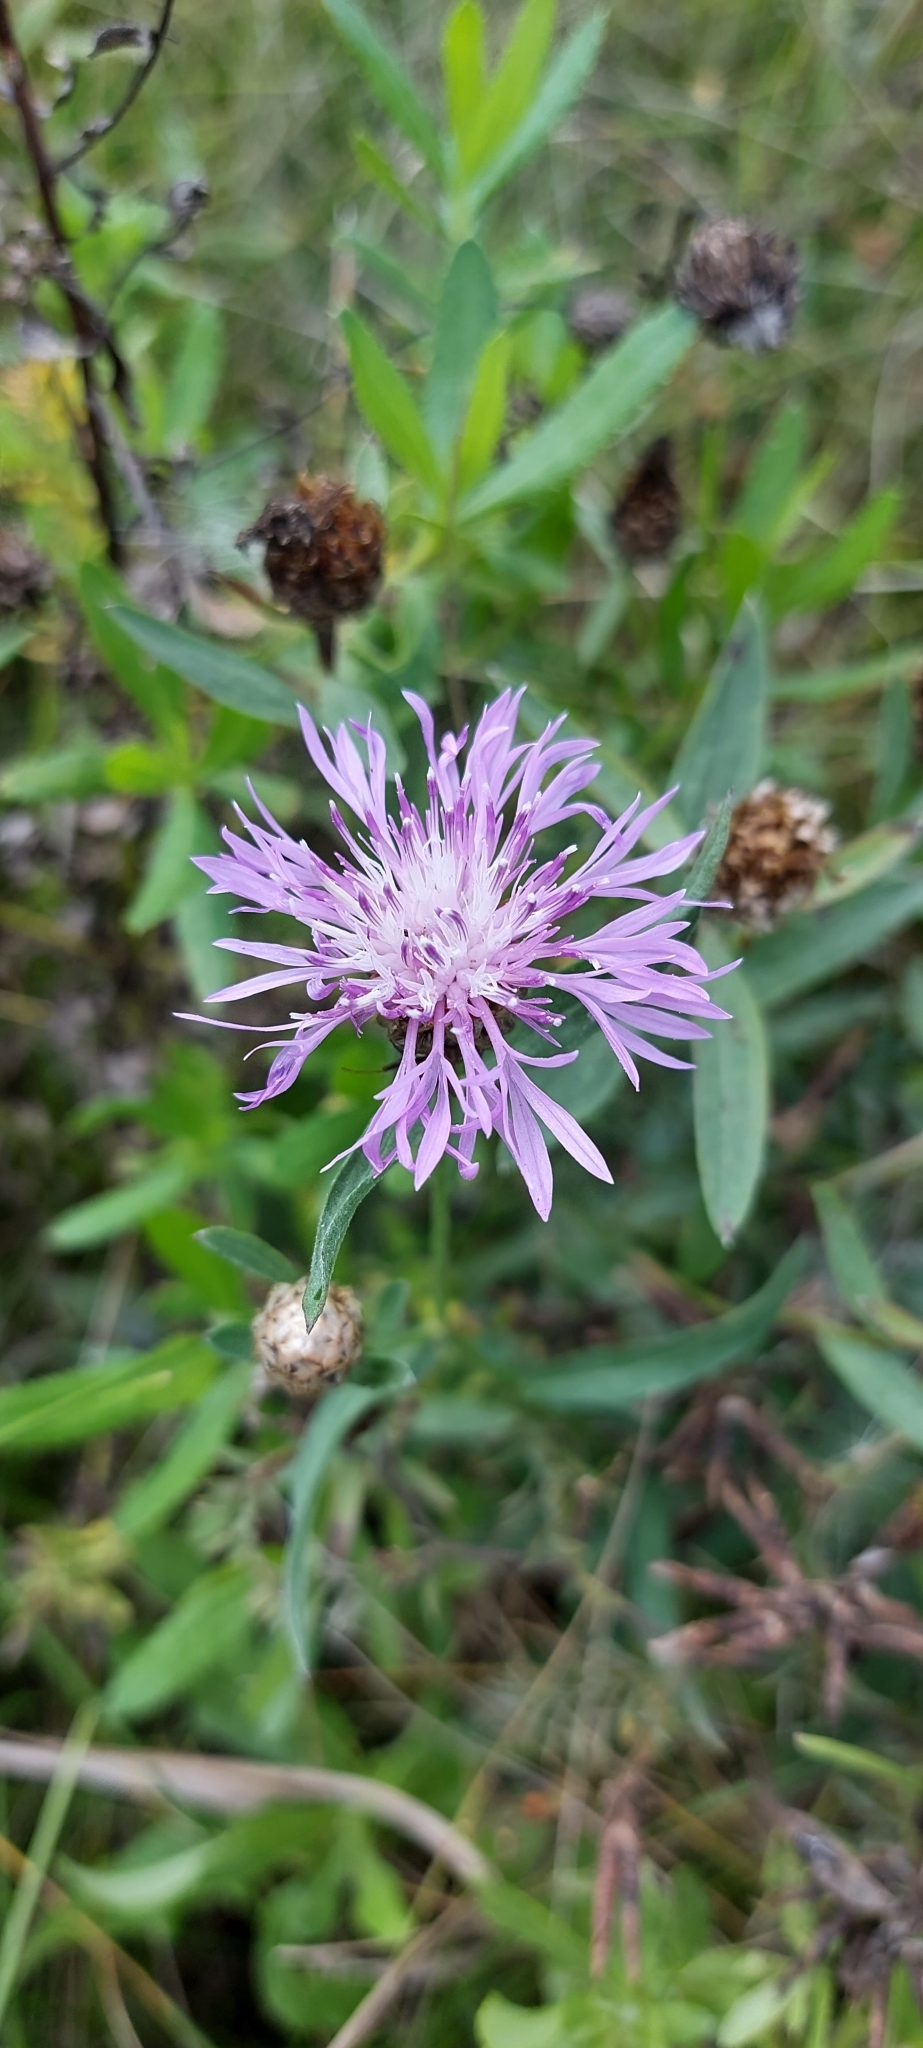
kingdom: Plantae
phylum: Tracheophyta
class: Magnoliopsida
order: Asterales
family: Asteraceae
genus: Centaurea
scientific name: Centaurea jacea
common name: Brown knapweed
